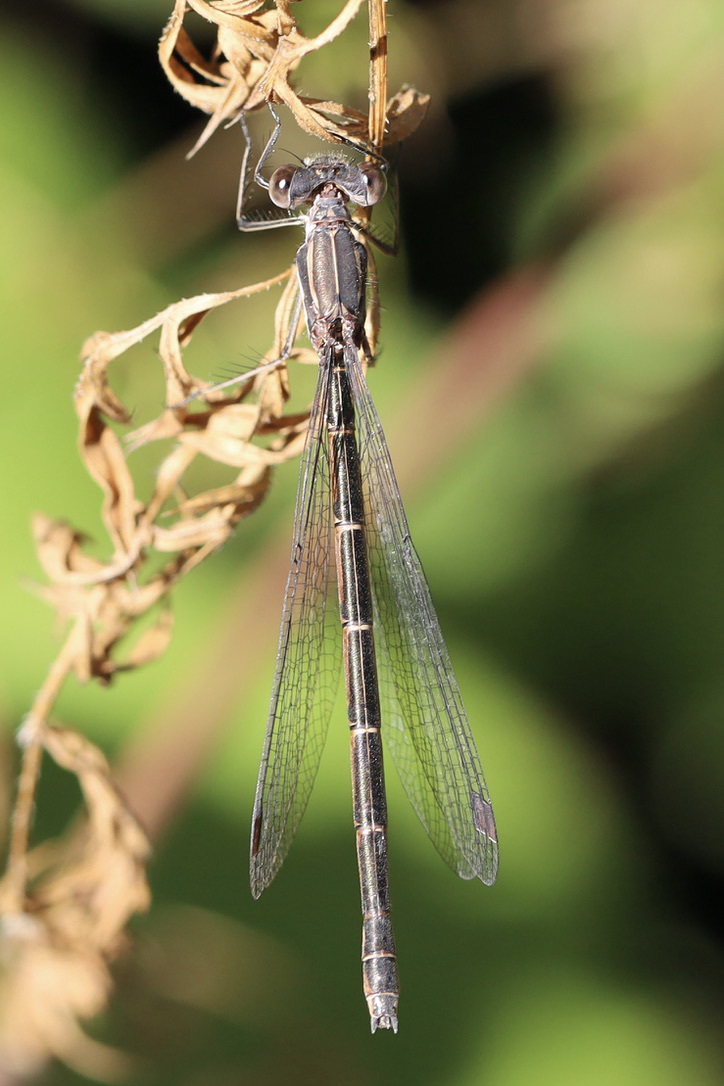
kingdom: Animalia
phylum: Arthropoda
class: Insecta
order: Odonata
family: Lestidae
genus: Lestes
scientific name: Lestes congener
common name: Spotted spreadwing
